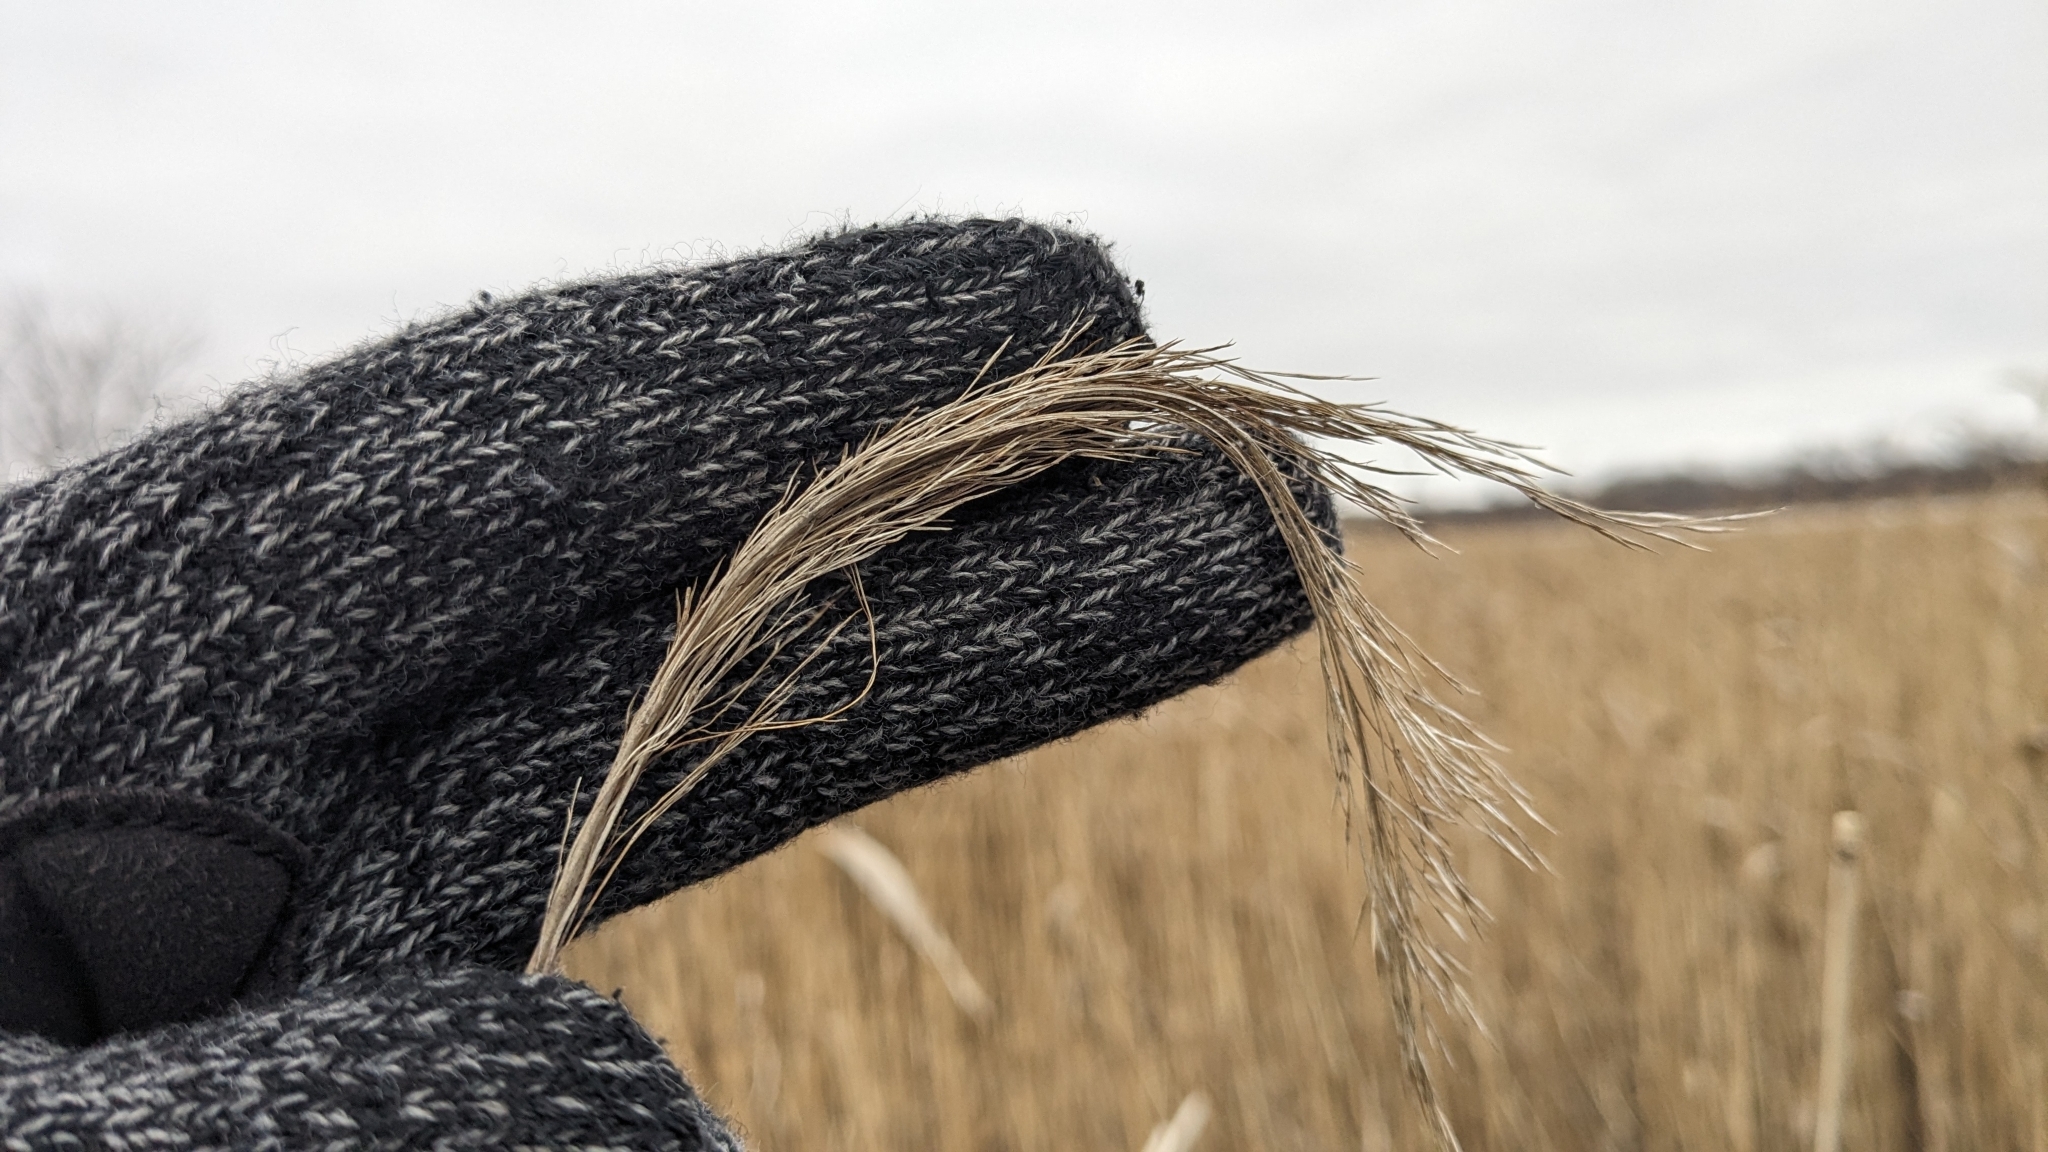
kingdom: Plantae
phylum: Tracheophyta
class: Liliopsida
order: Poales
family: Poaceae
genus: Phragmites
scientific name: Phragmites australis
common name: Common reed
